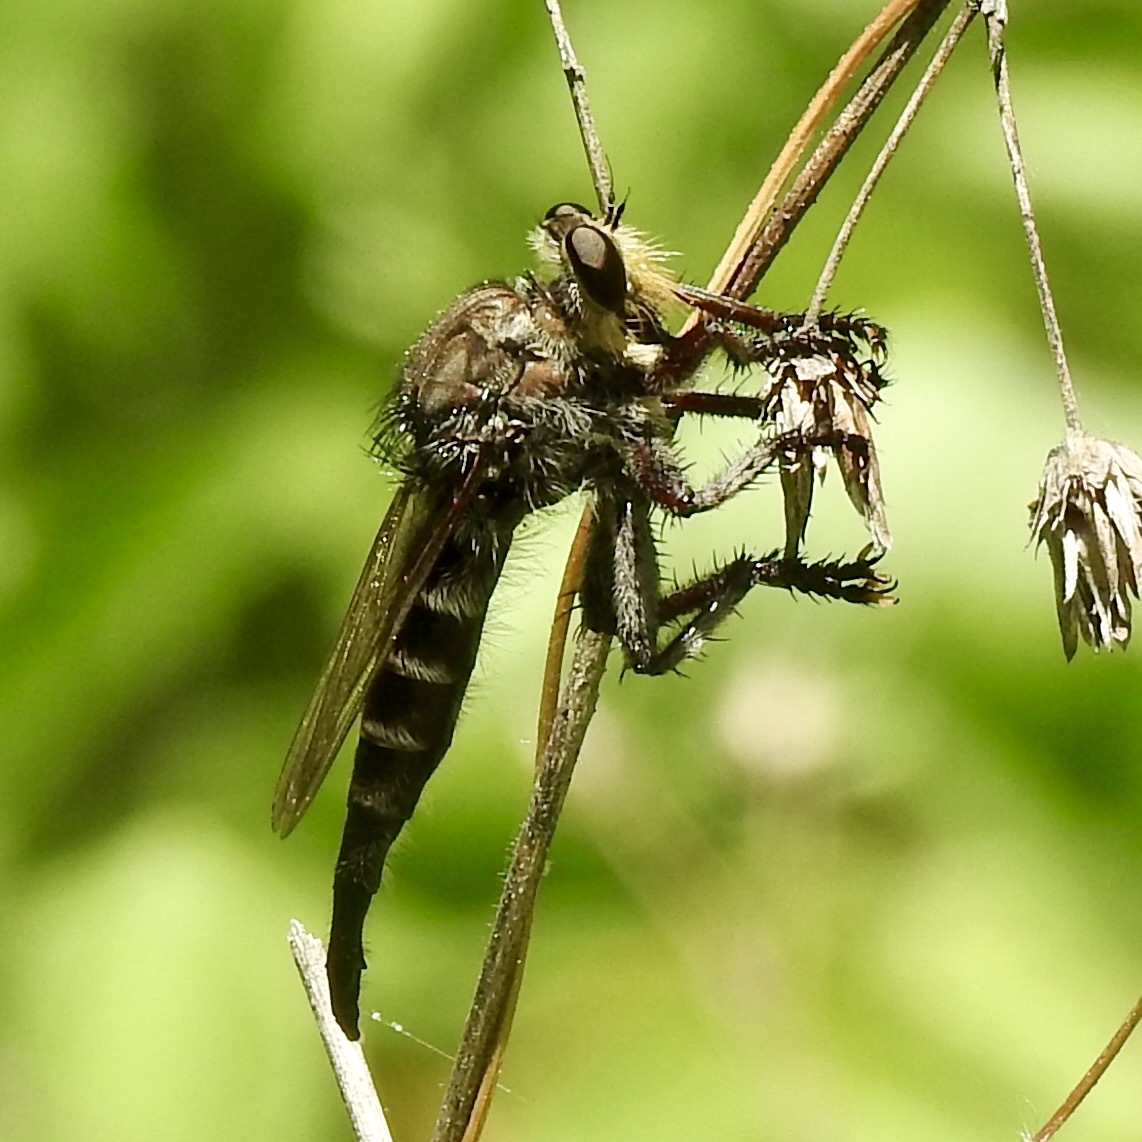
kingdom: Animalia
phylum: Arthropoda
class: Insecta
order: Diptera
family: Asilidae
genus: Promachus
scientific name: Promachus bastardii
